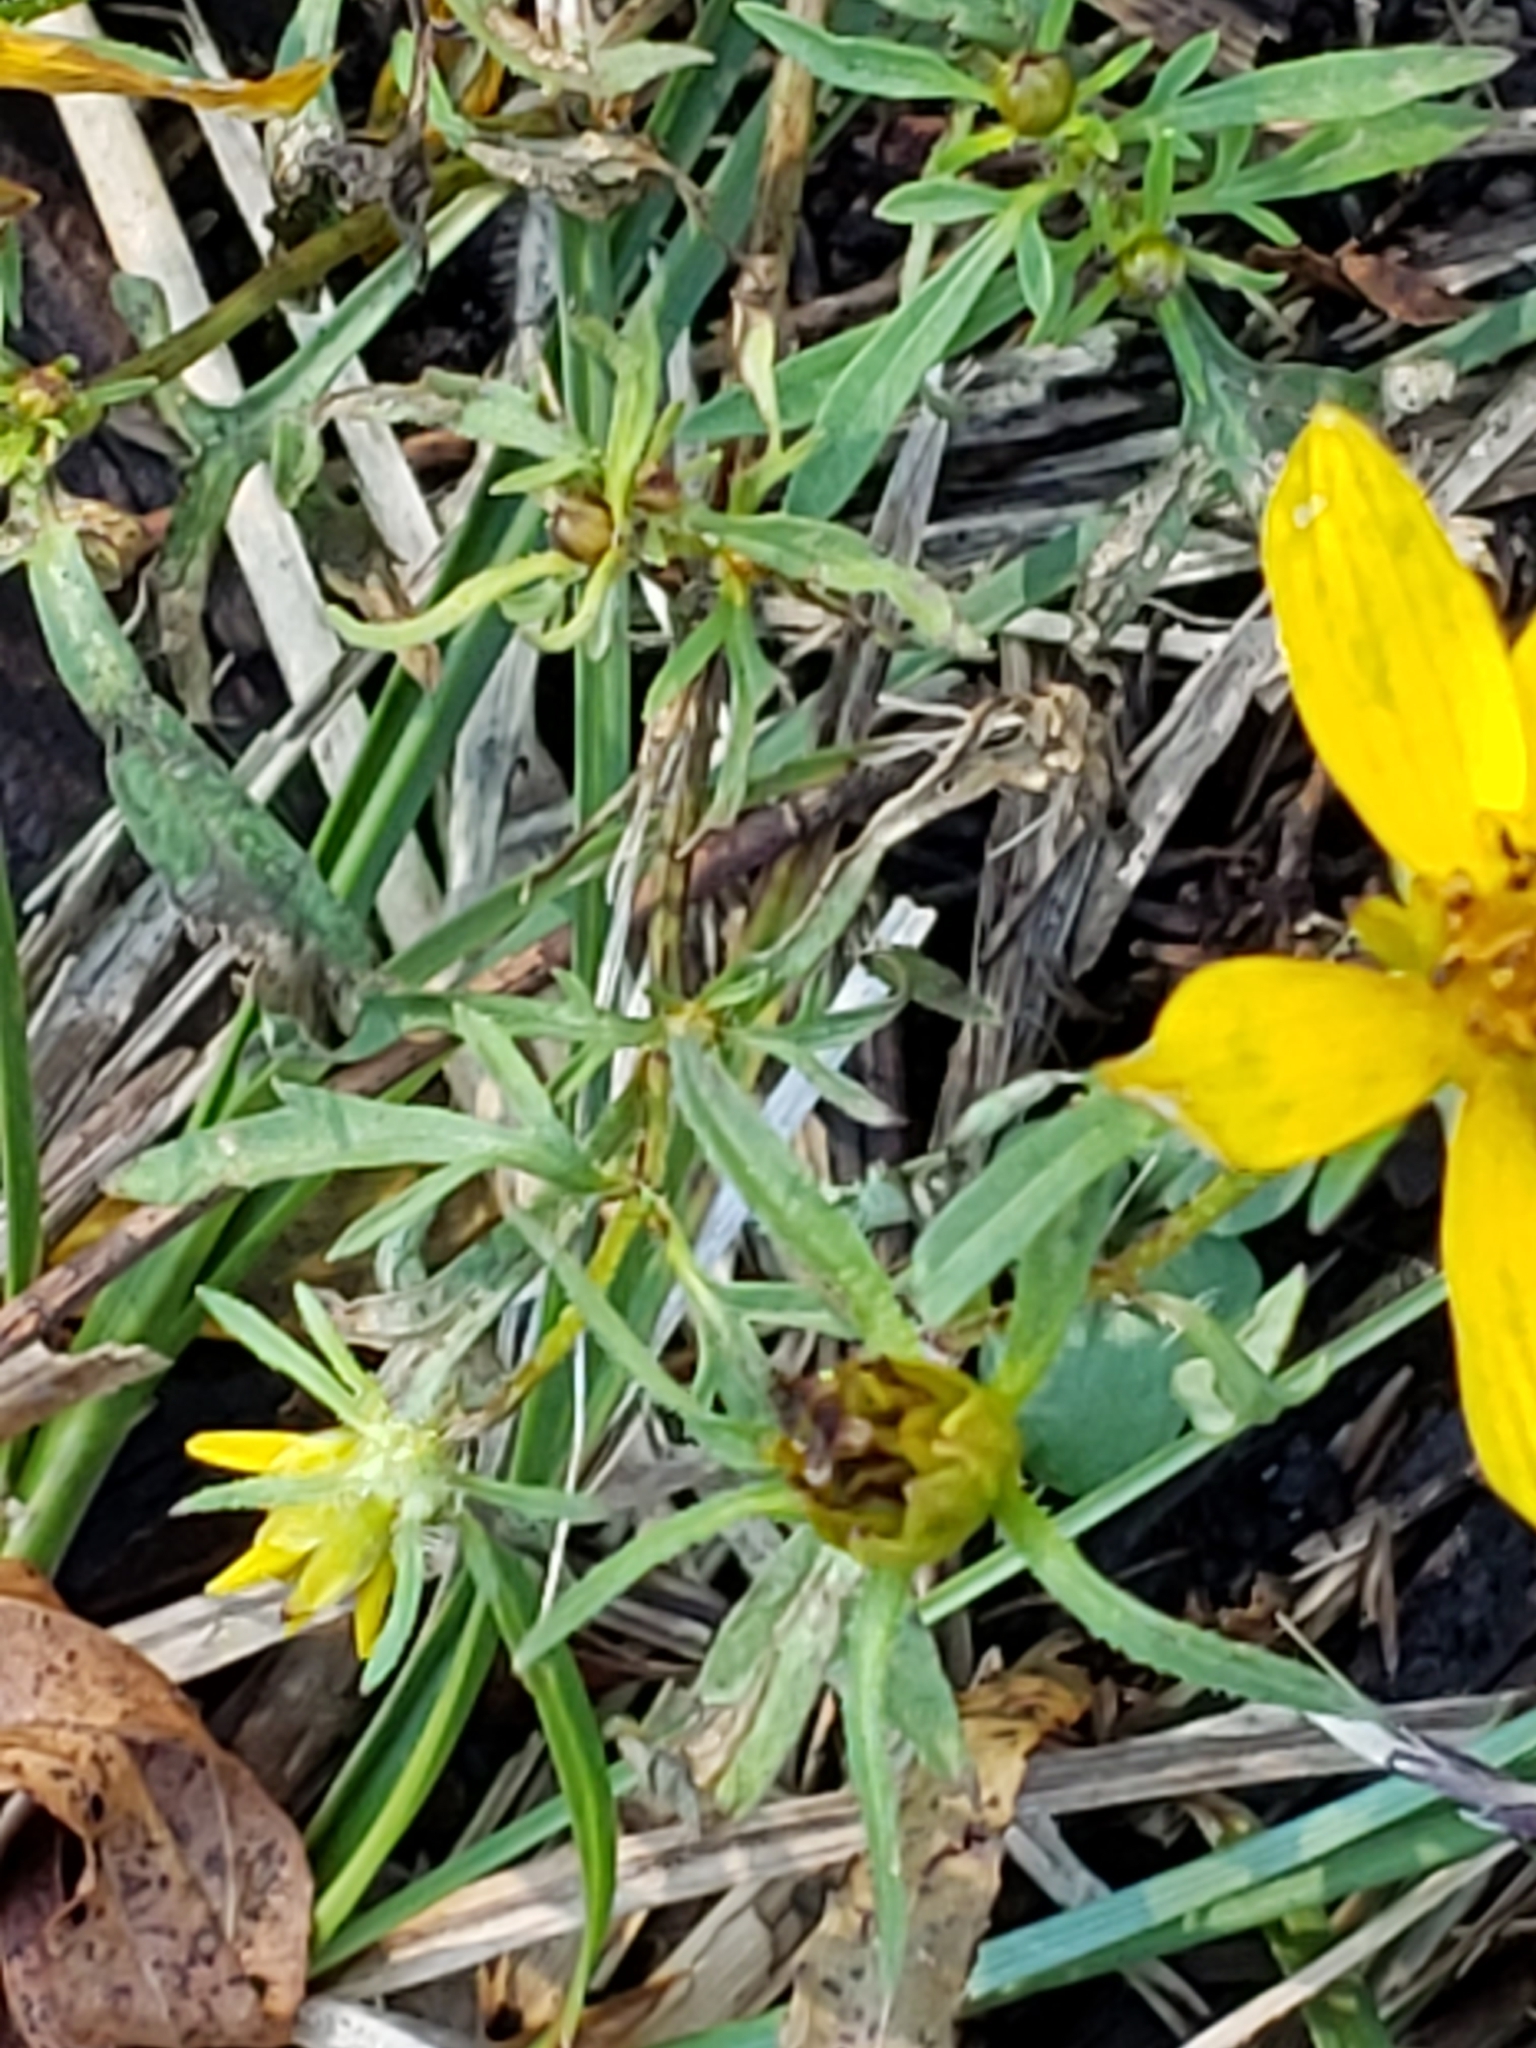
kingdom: Plantae
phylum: Tracheophyta
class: Magnoliopsida
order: Asterales
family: Asteraceae
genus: Bidens
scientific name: Bidens aristosa
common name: Western tickseed
